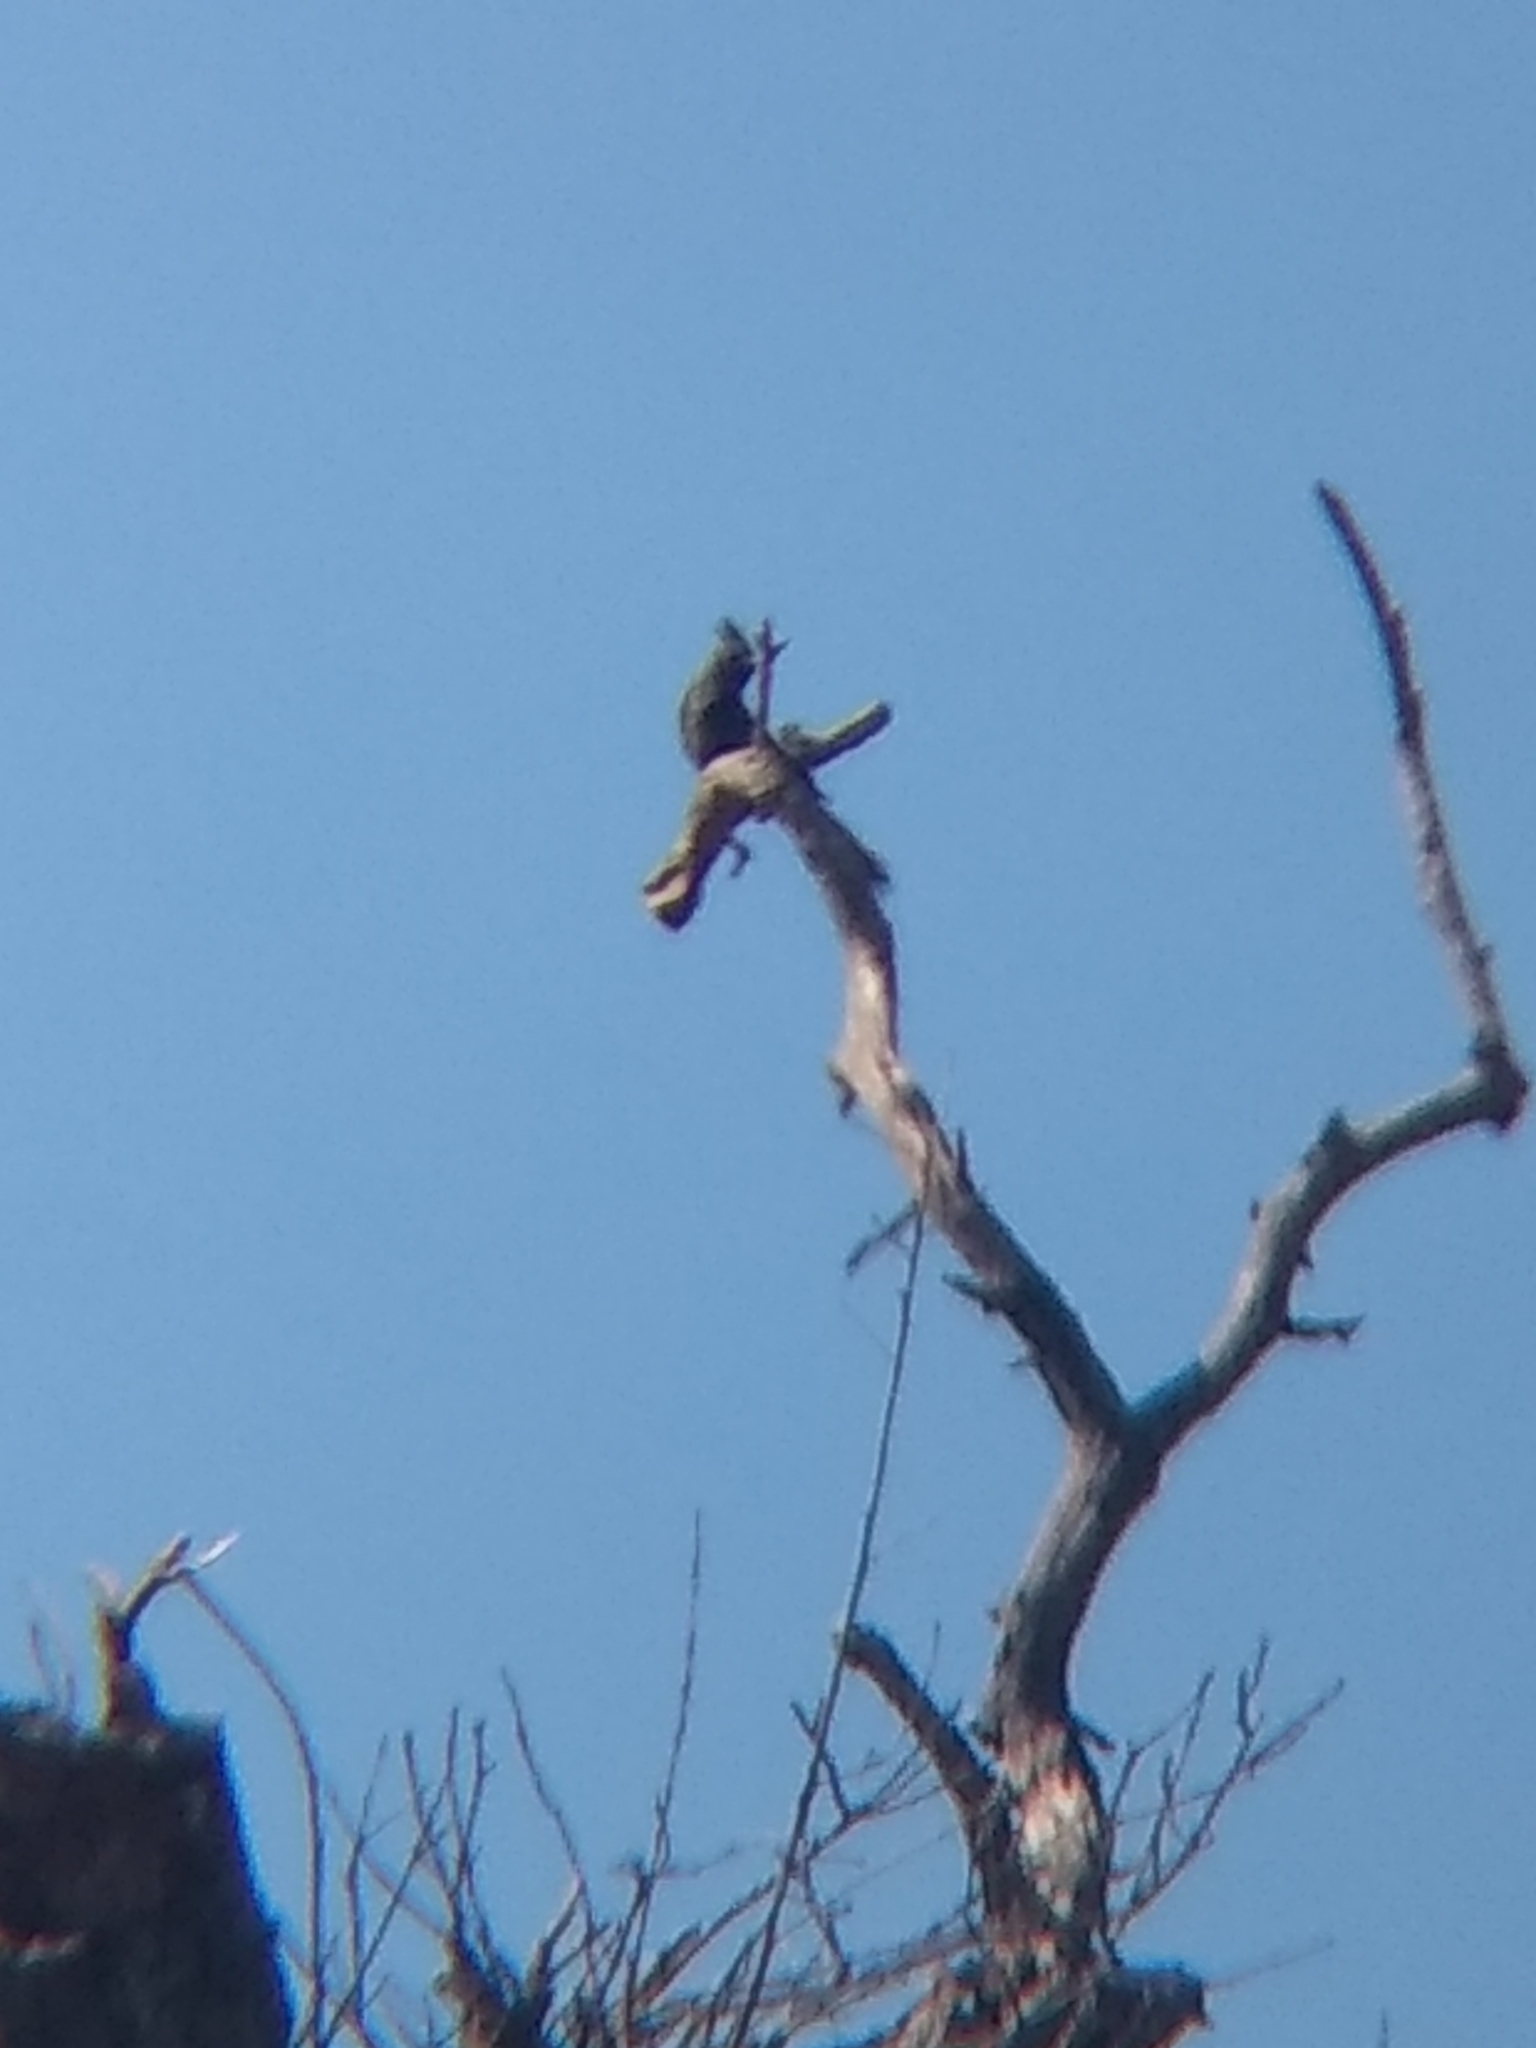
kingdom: Animalia
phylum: Chordata
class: Aves
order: Passeriformes
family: Ptilogonatidae
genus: Phainopepla
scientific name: Phainopepla nitens
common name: Phainopepla
